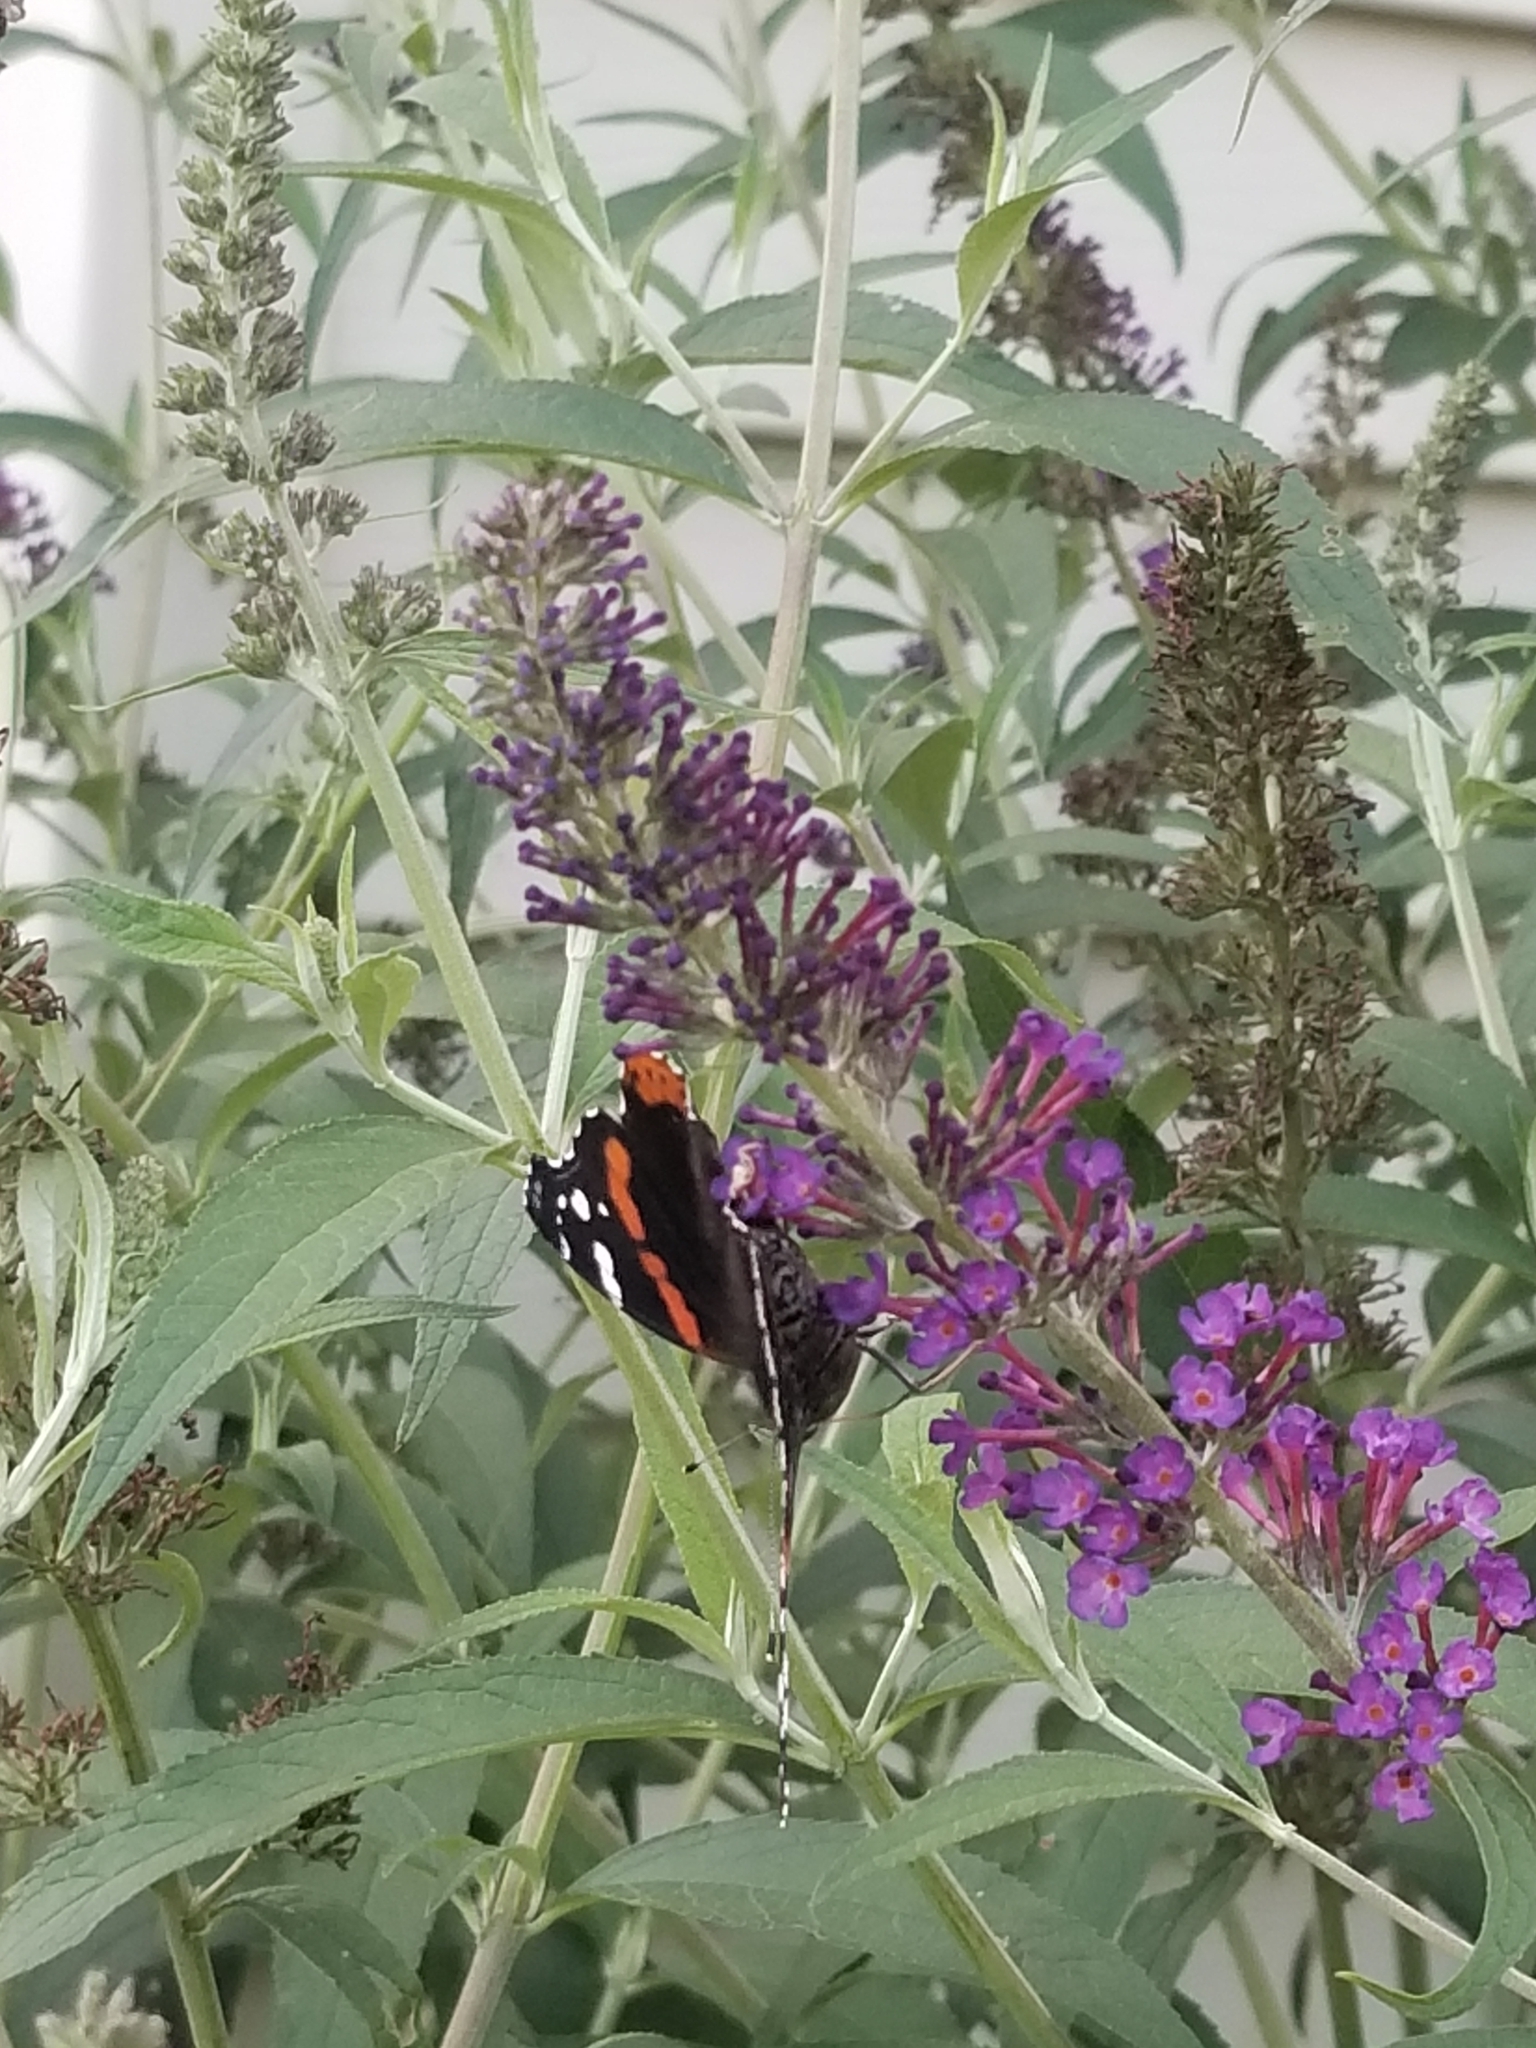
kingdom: Animalia
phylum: Arthropoda
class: Insecta
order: Lepidoptera
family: Nymphalidae
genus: Vanessa
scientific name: Vanessa atalanta
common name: Red admiral
